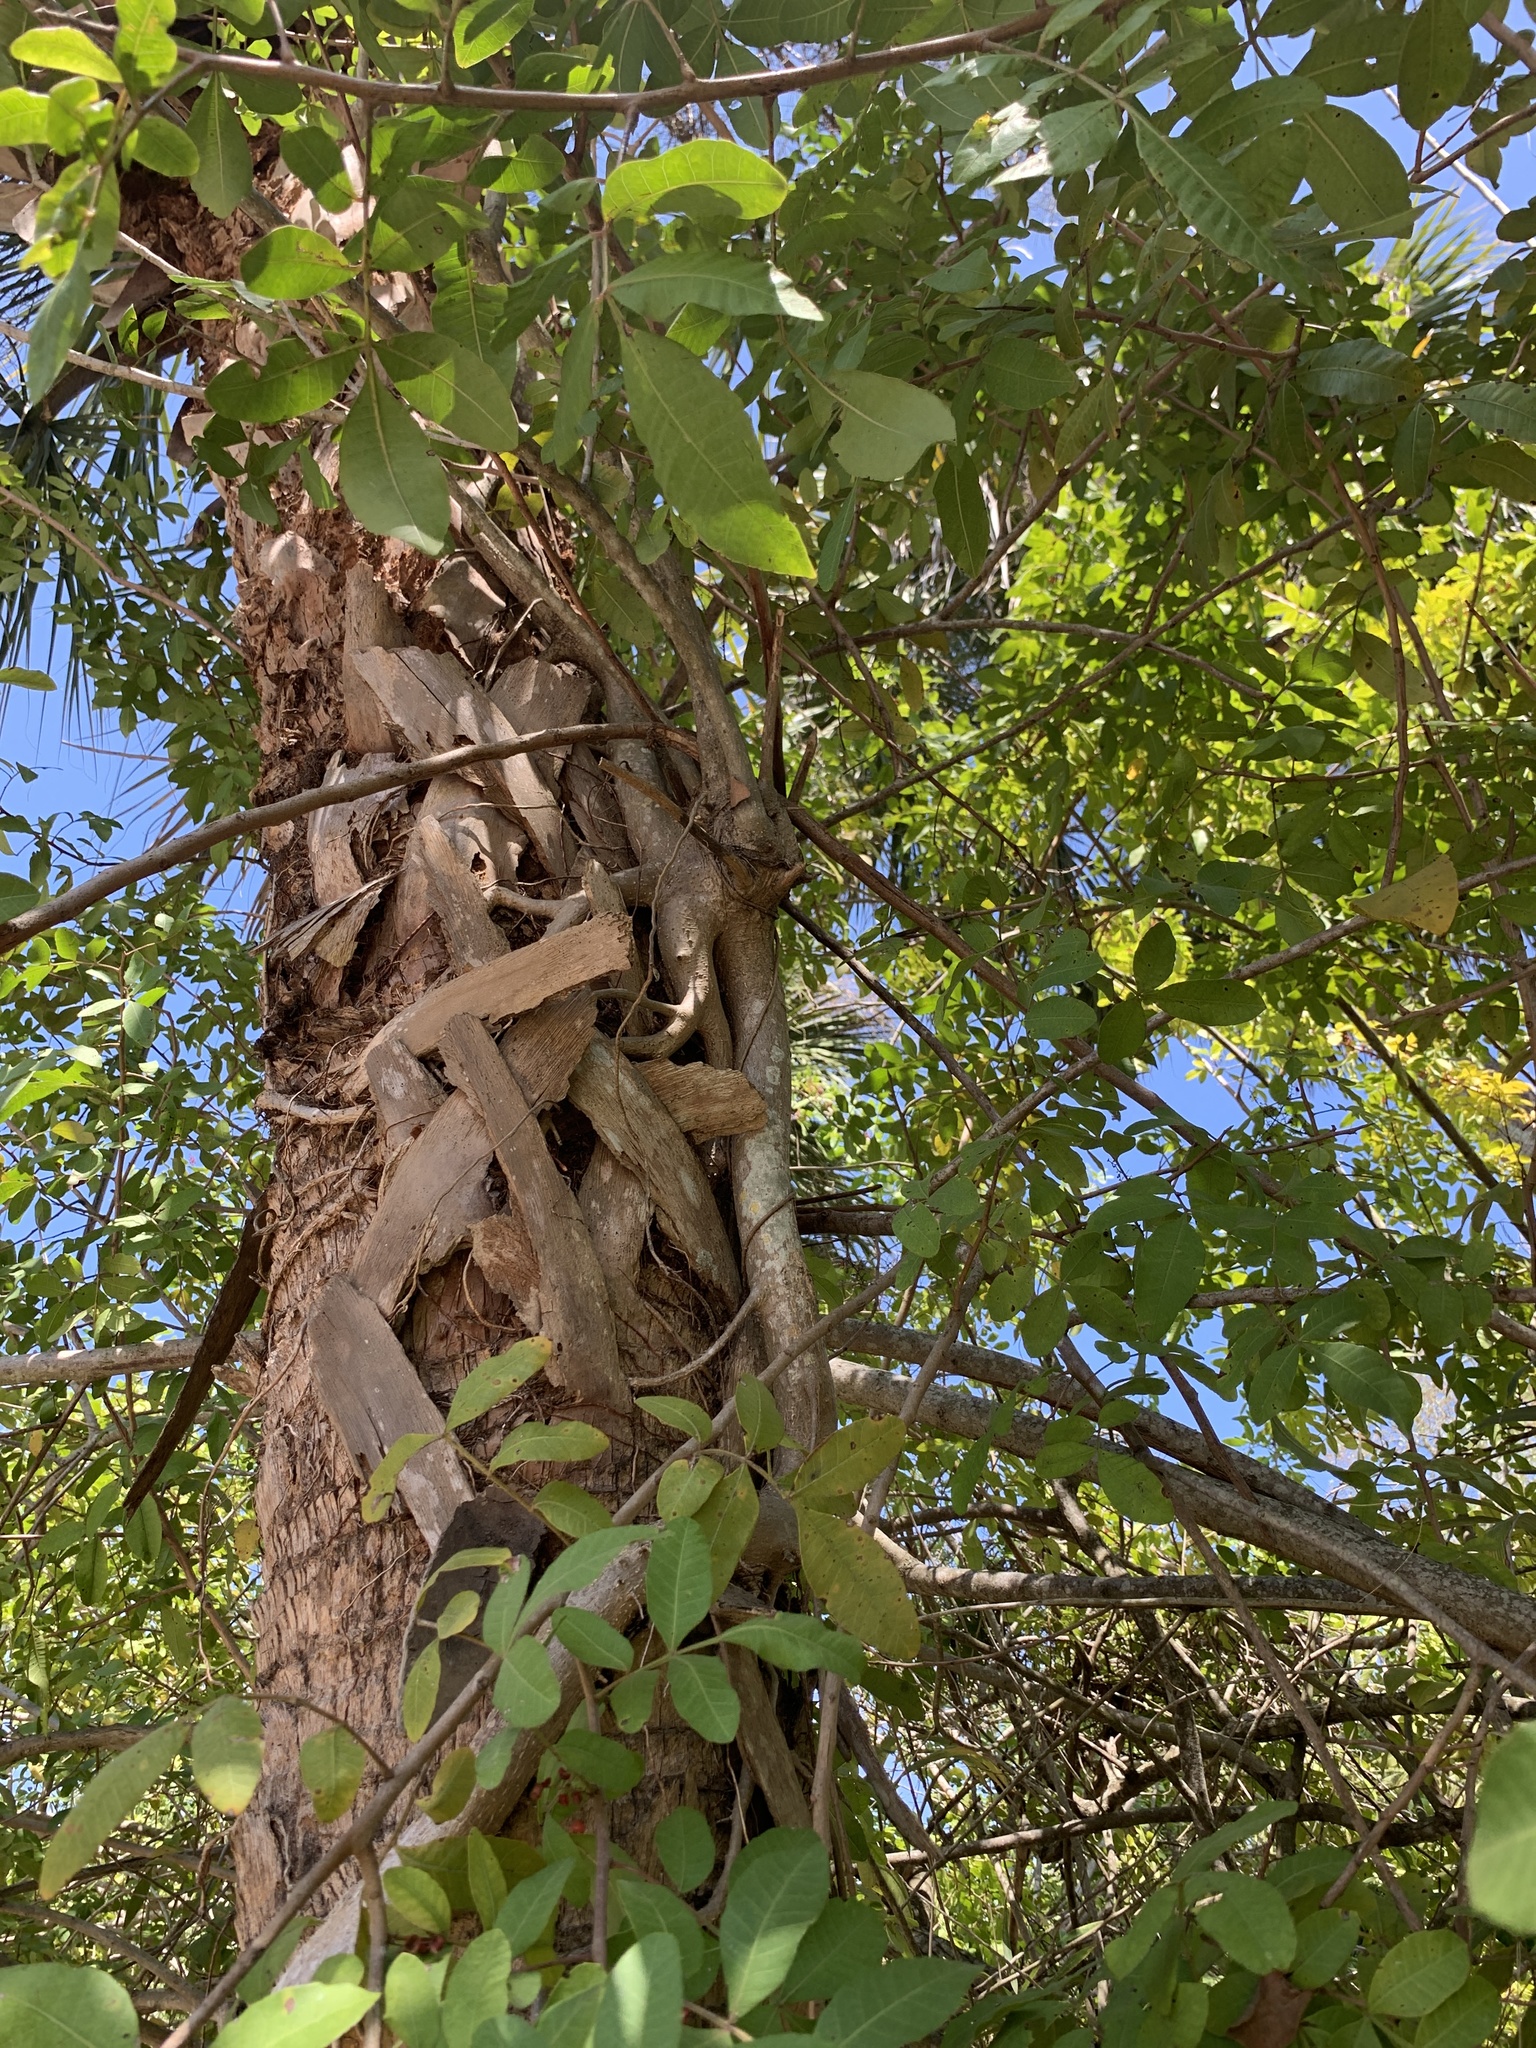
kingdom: Plantae
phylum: Tracheophyta
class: Magnoliopsida
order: Sapindales
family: Anacardiaceae
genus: Schinus
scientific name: Schinus terebinthifolia
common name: Brazilian peppertree
